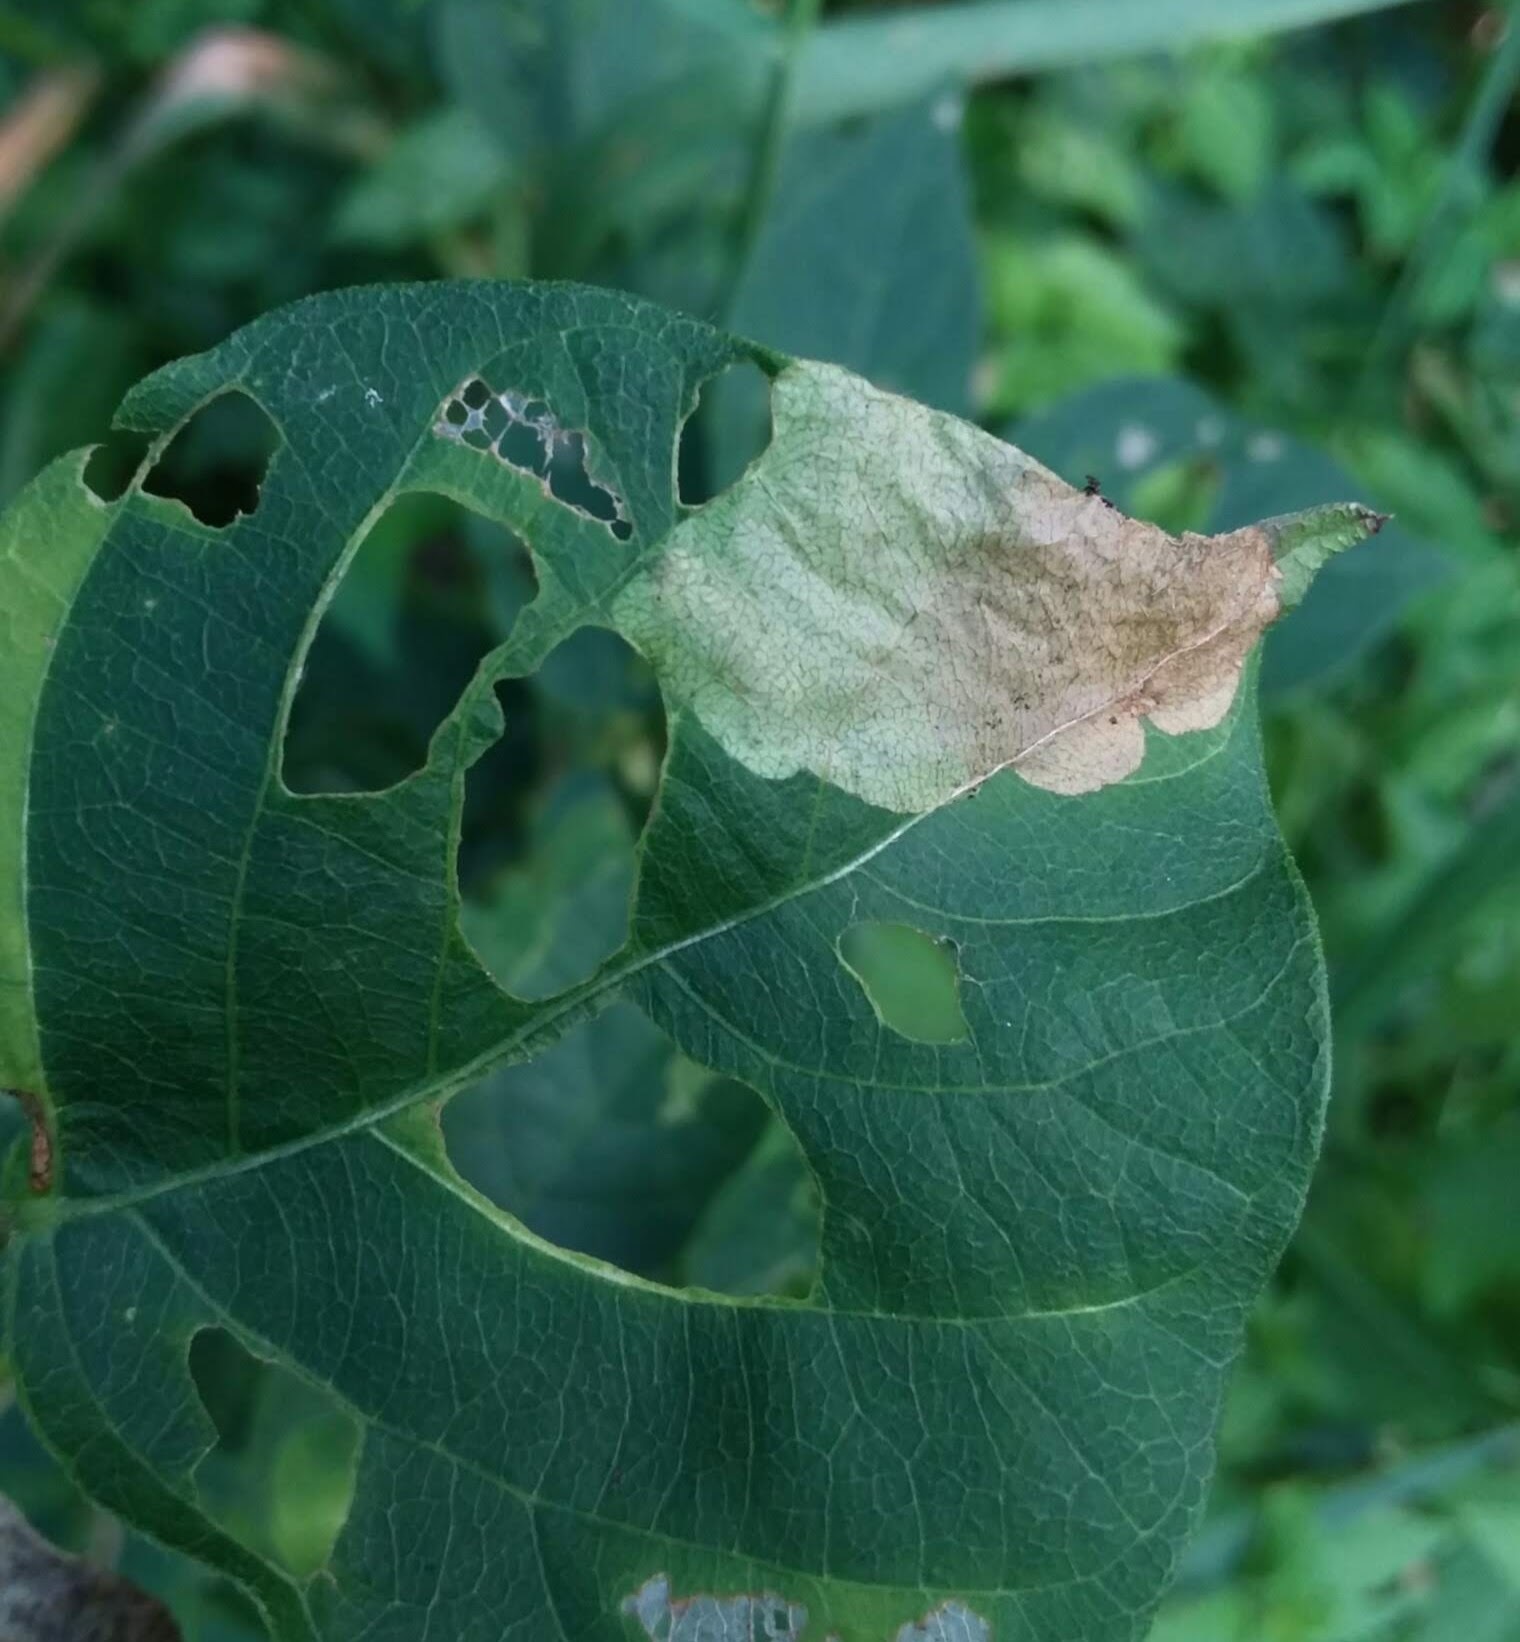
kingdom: Animalia
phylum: Arthropoda
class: Insecta
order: Coleoptera
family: Chrysomelidae
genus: Odontota
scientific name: Odontota scapularis
